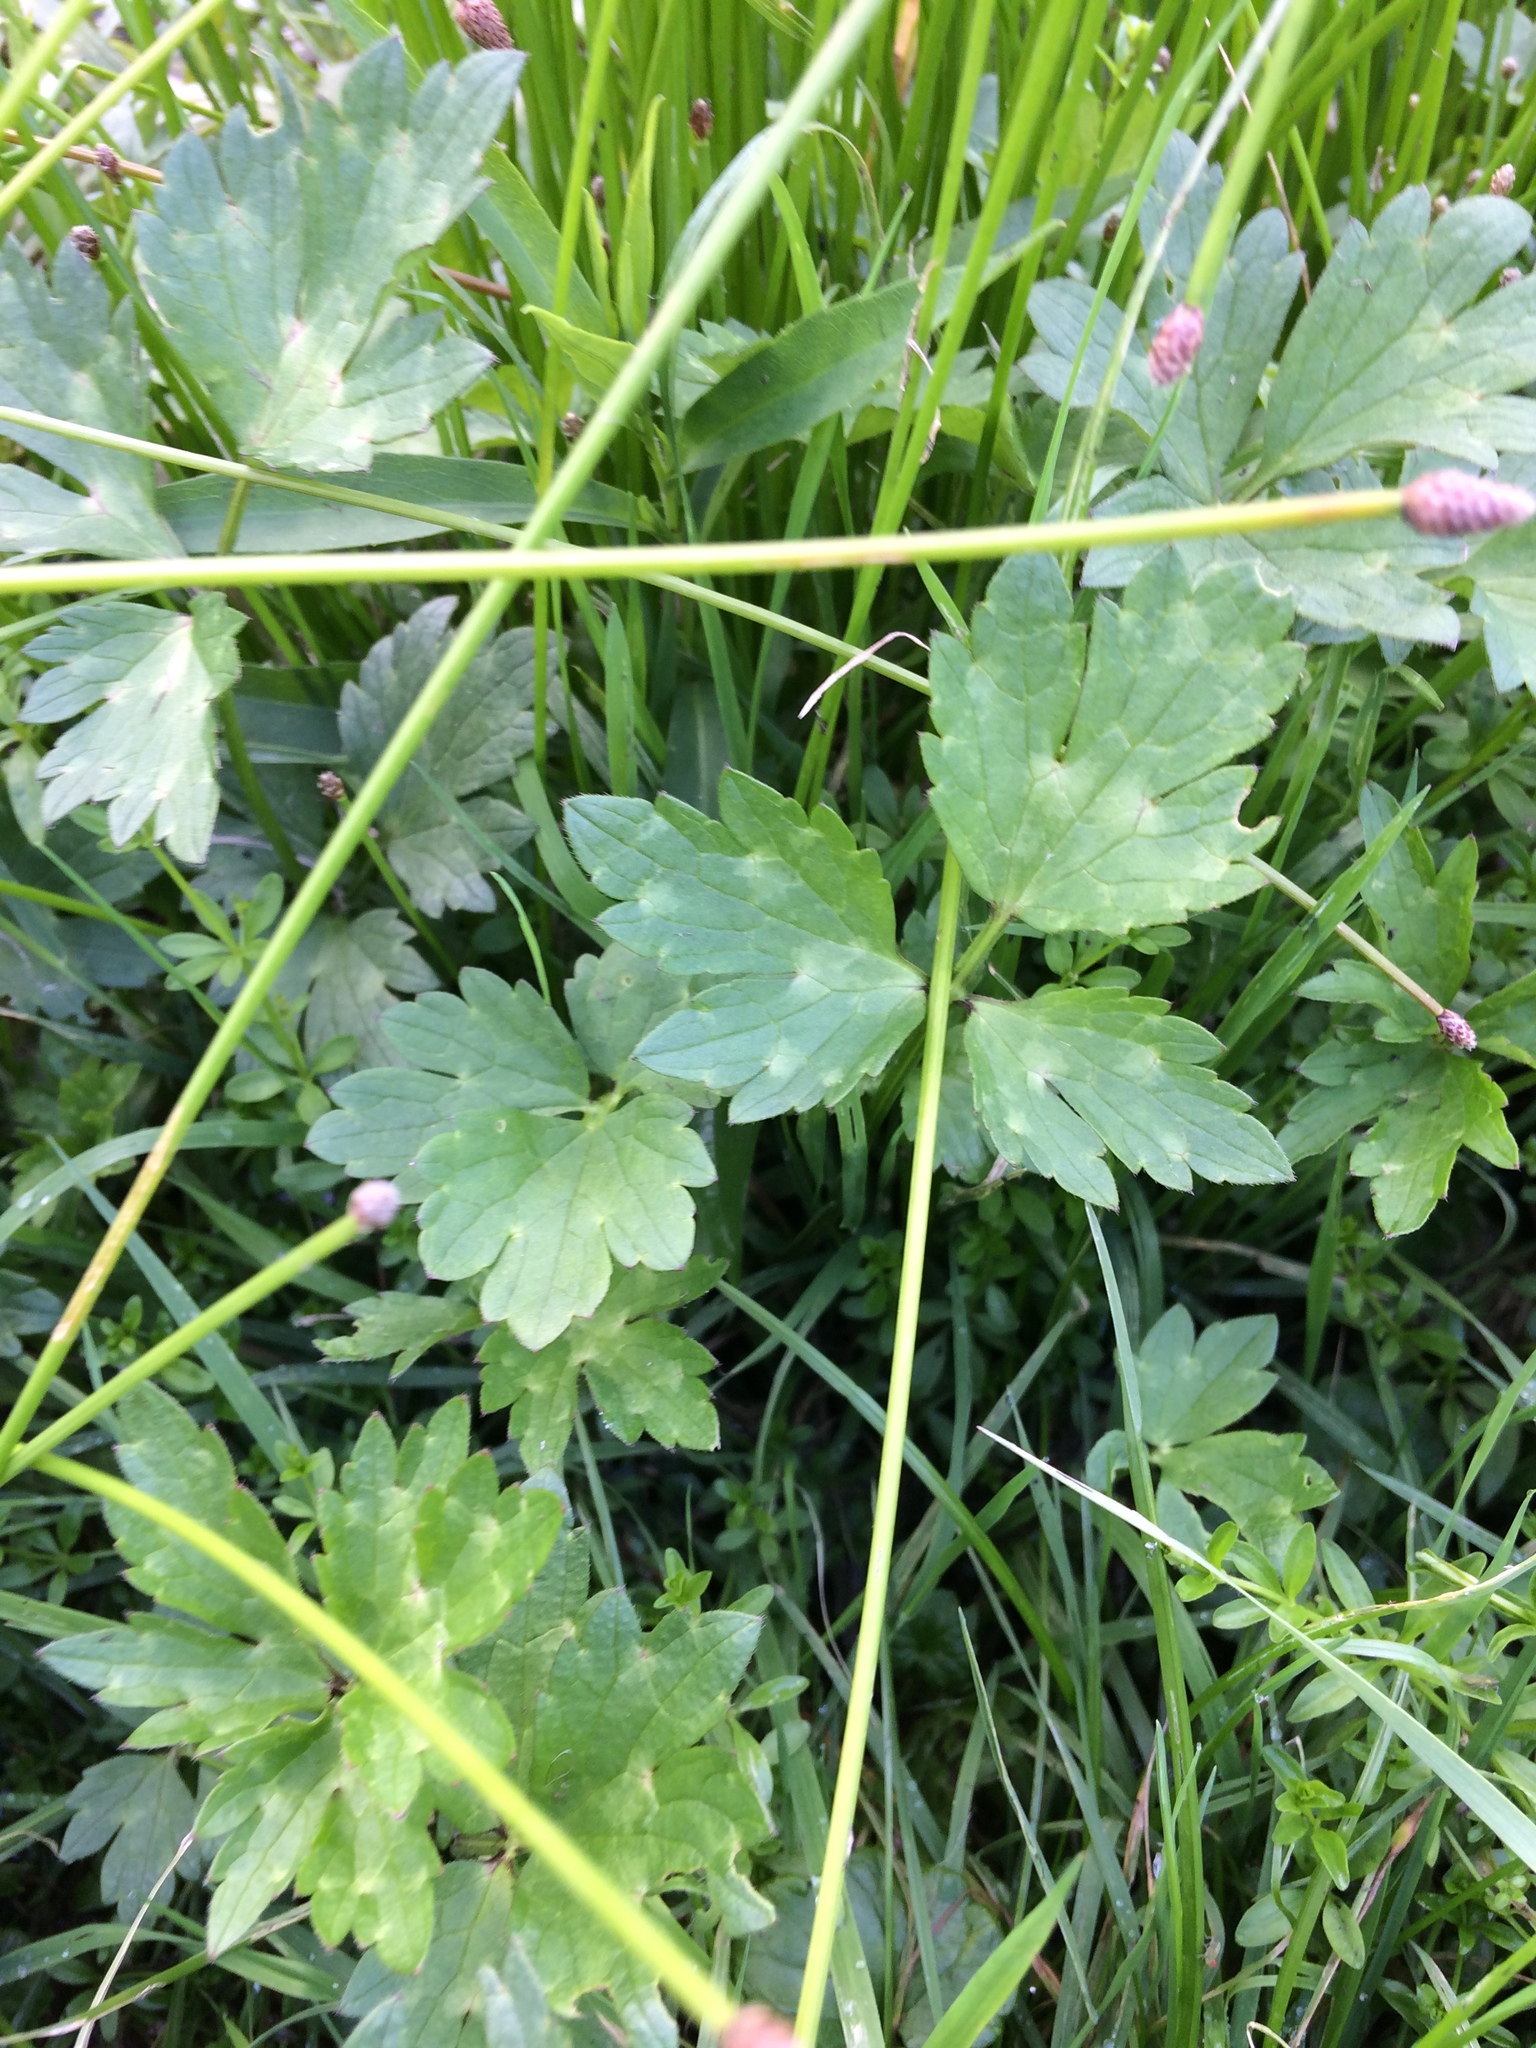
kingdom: Plantae
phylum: Tracheophyta
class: Magnoliopsida
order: Ranunculales
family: Ranunculaceae
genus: Ranunculus
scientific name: Ranunculus repens
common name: Creeping buttercup
